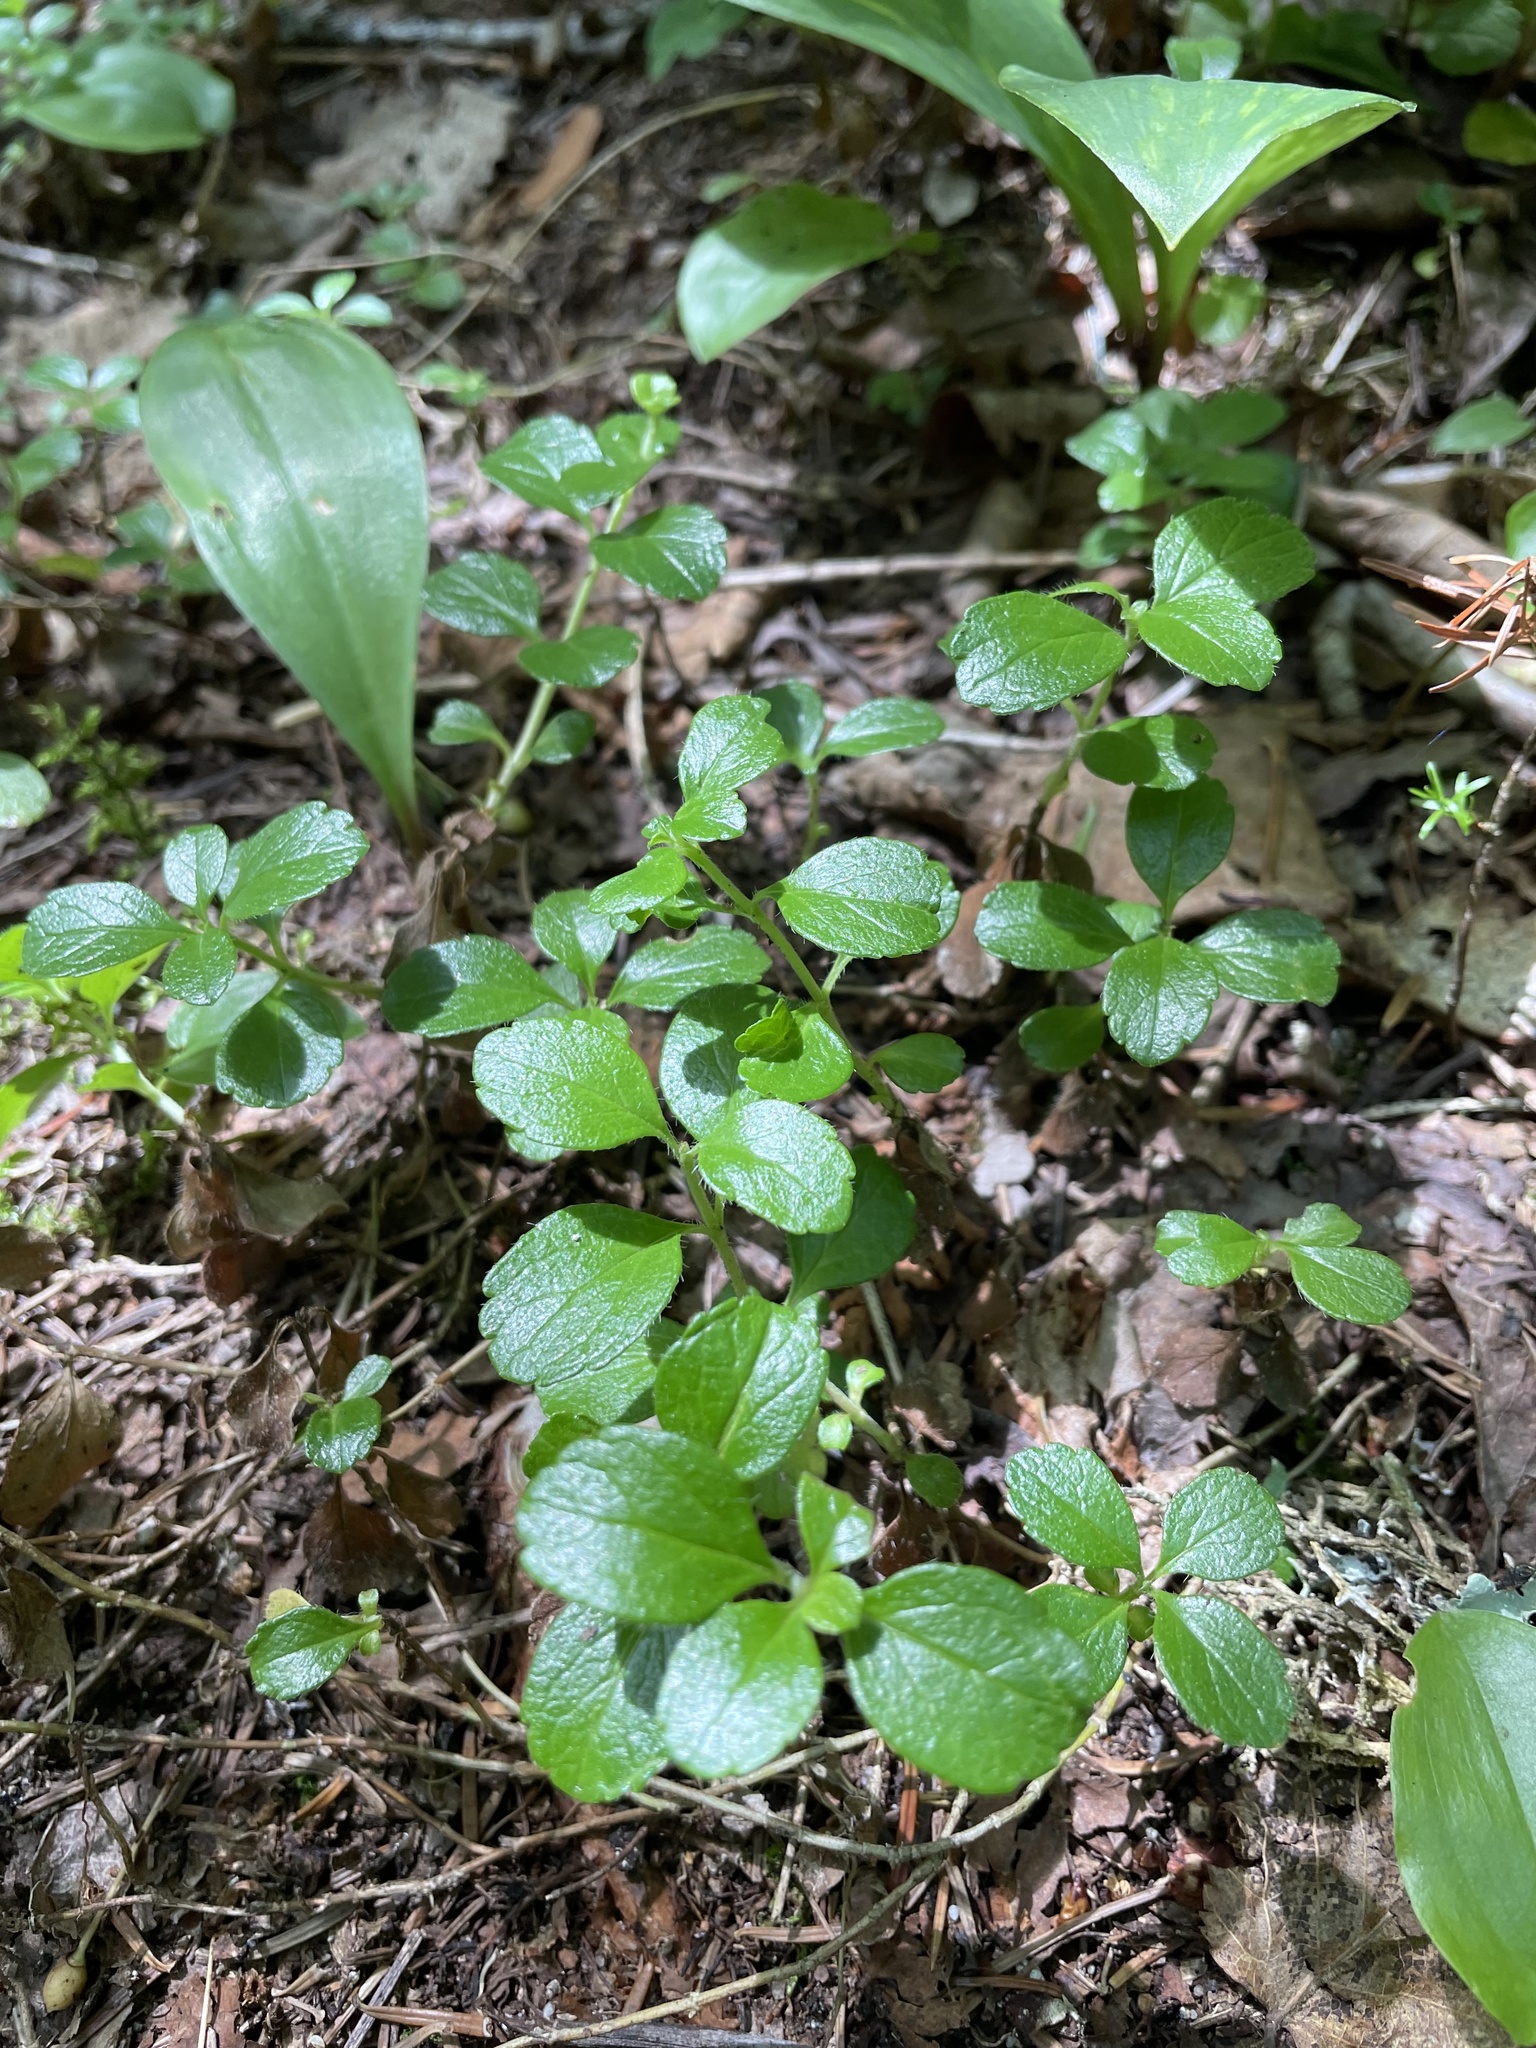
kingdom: Plantae
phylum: Tracheophyta
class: Magnoliopsida
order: Dipsacales
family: Caprifoliaceae
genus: Linnaea
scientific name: Linnaea borealis
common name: Twinflower
